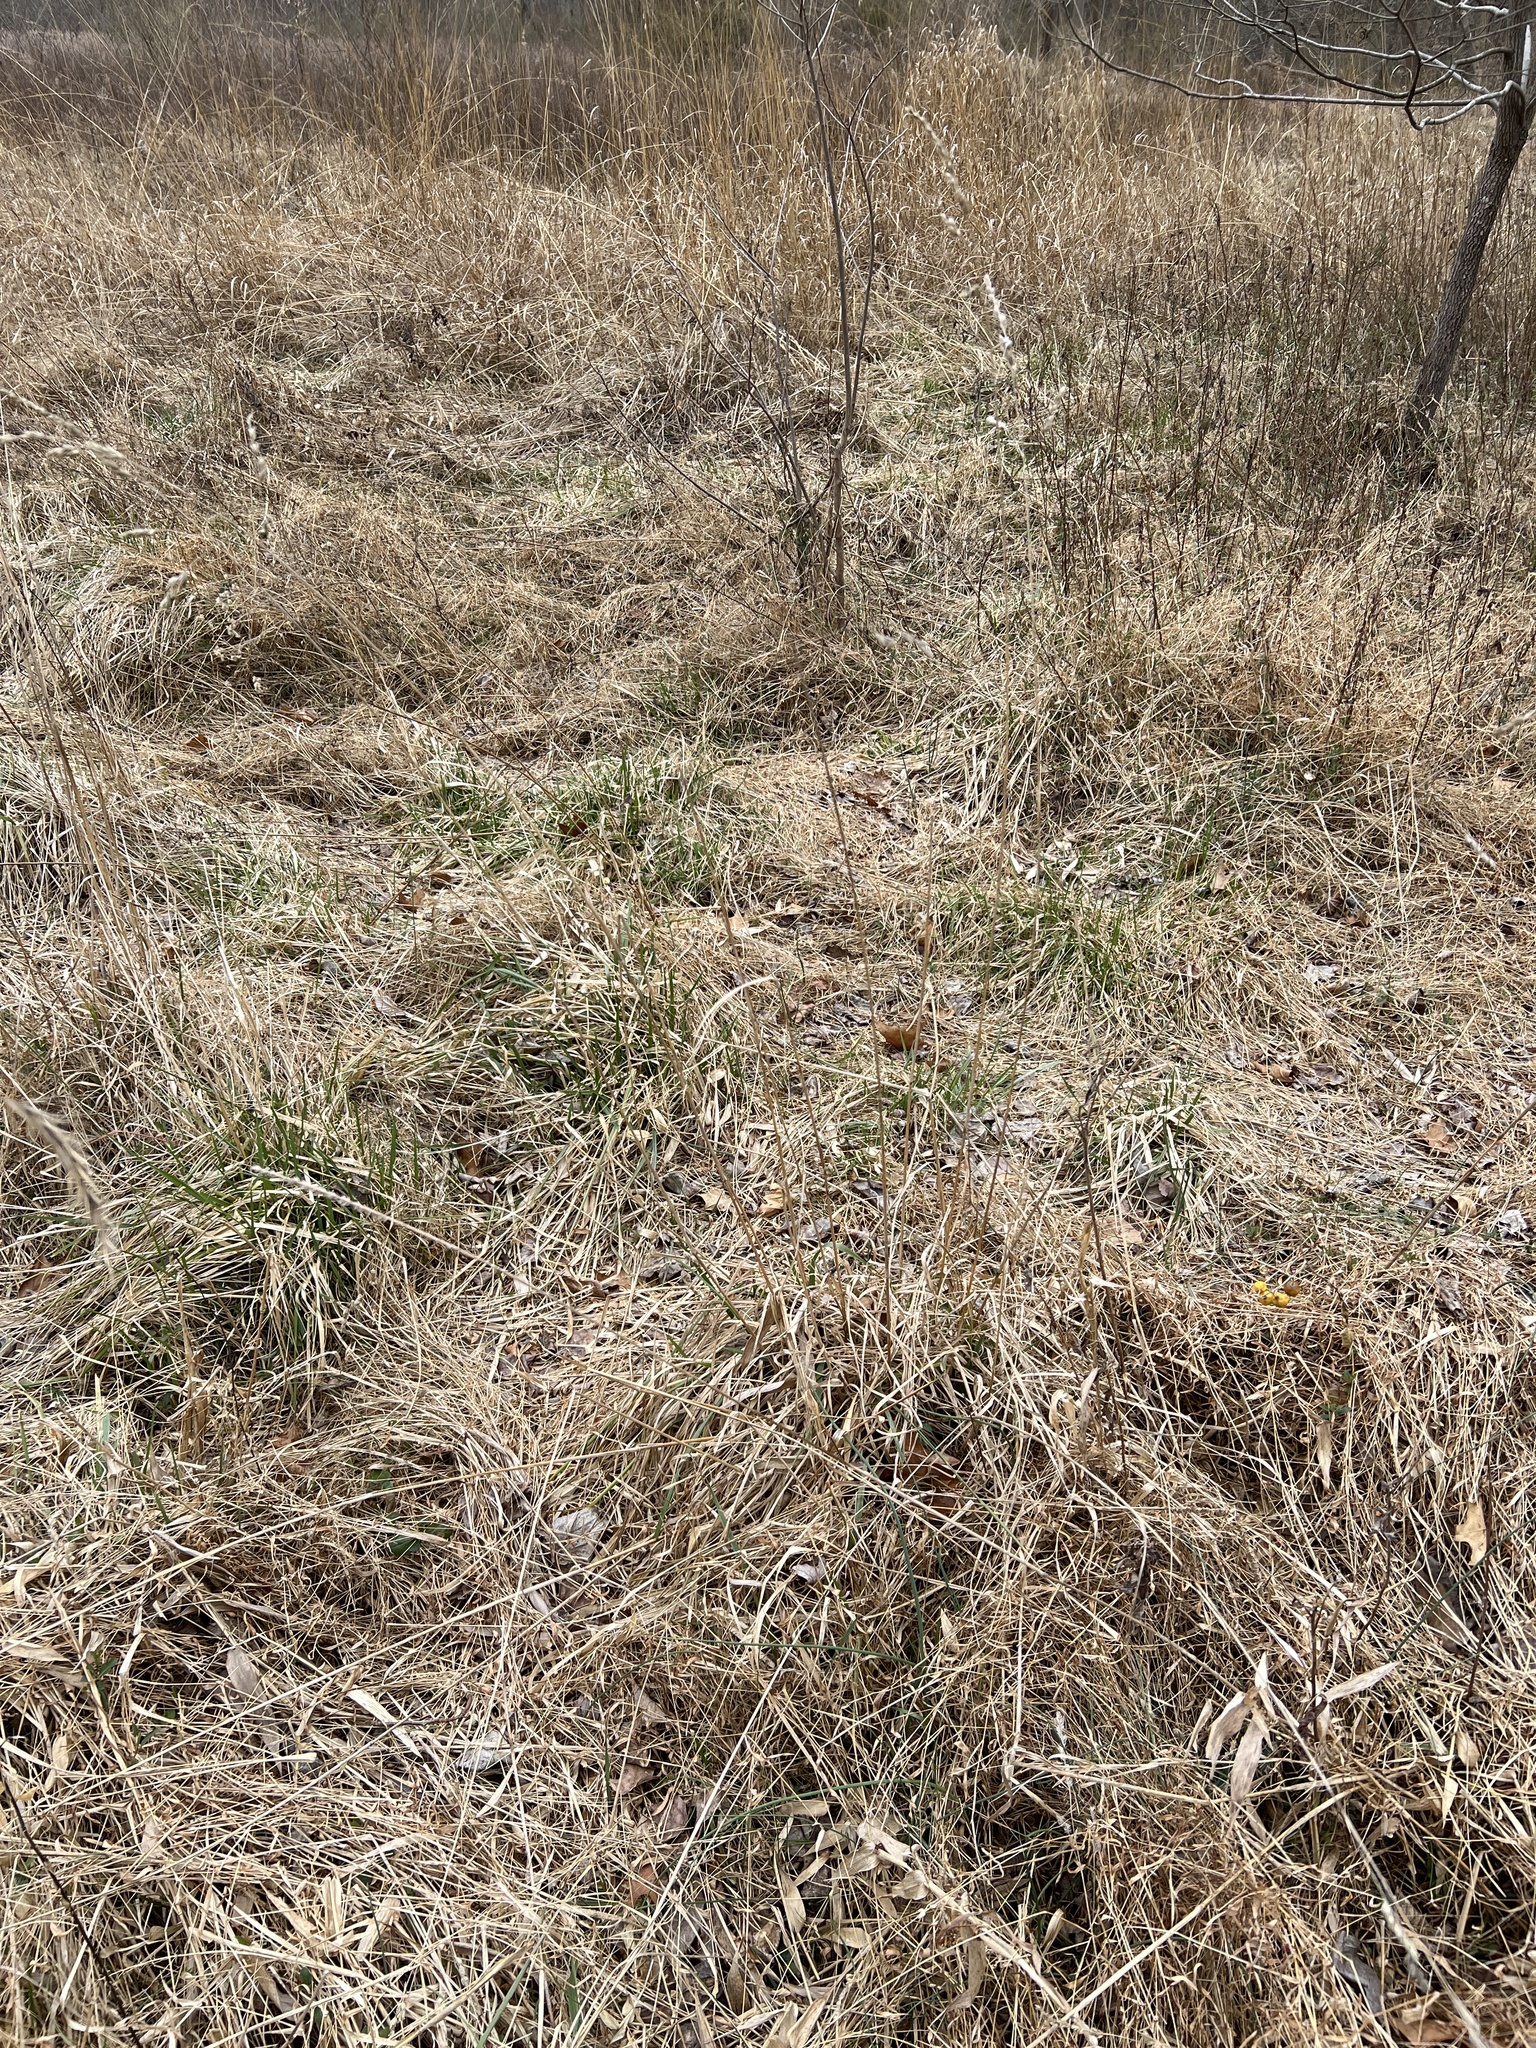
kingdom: Plantae
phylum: Tracheophyta
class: Liliopsida
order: Poales
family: Poaceae
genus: Dactylis
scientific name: Dactylis glomerata
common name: Orchardgrass
